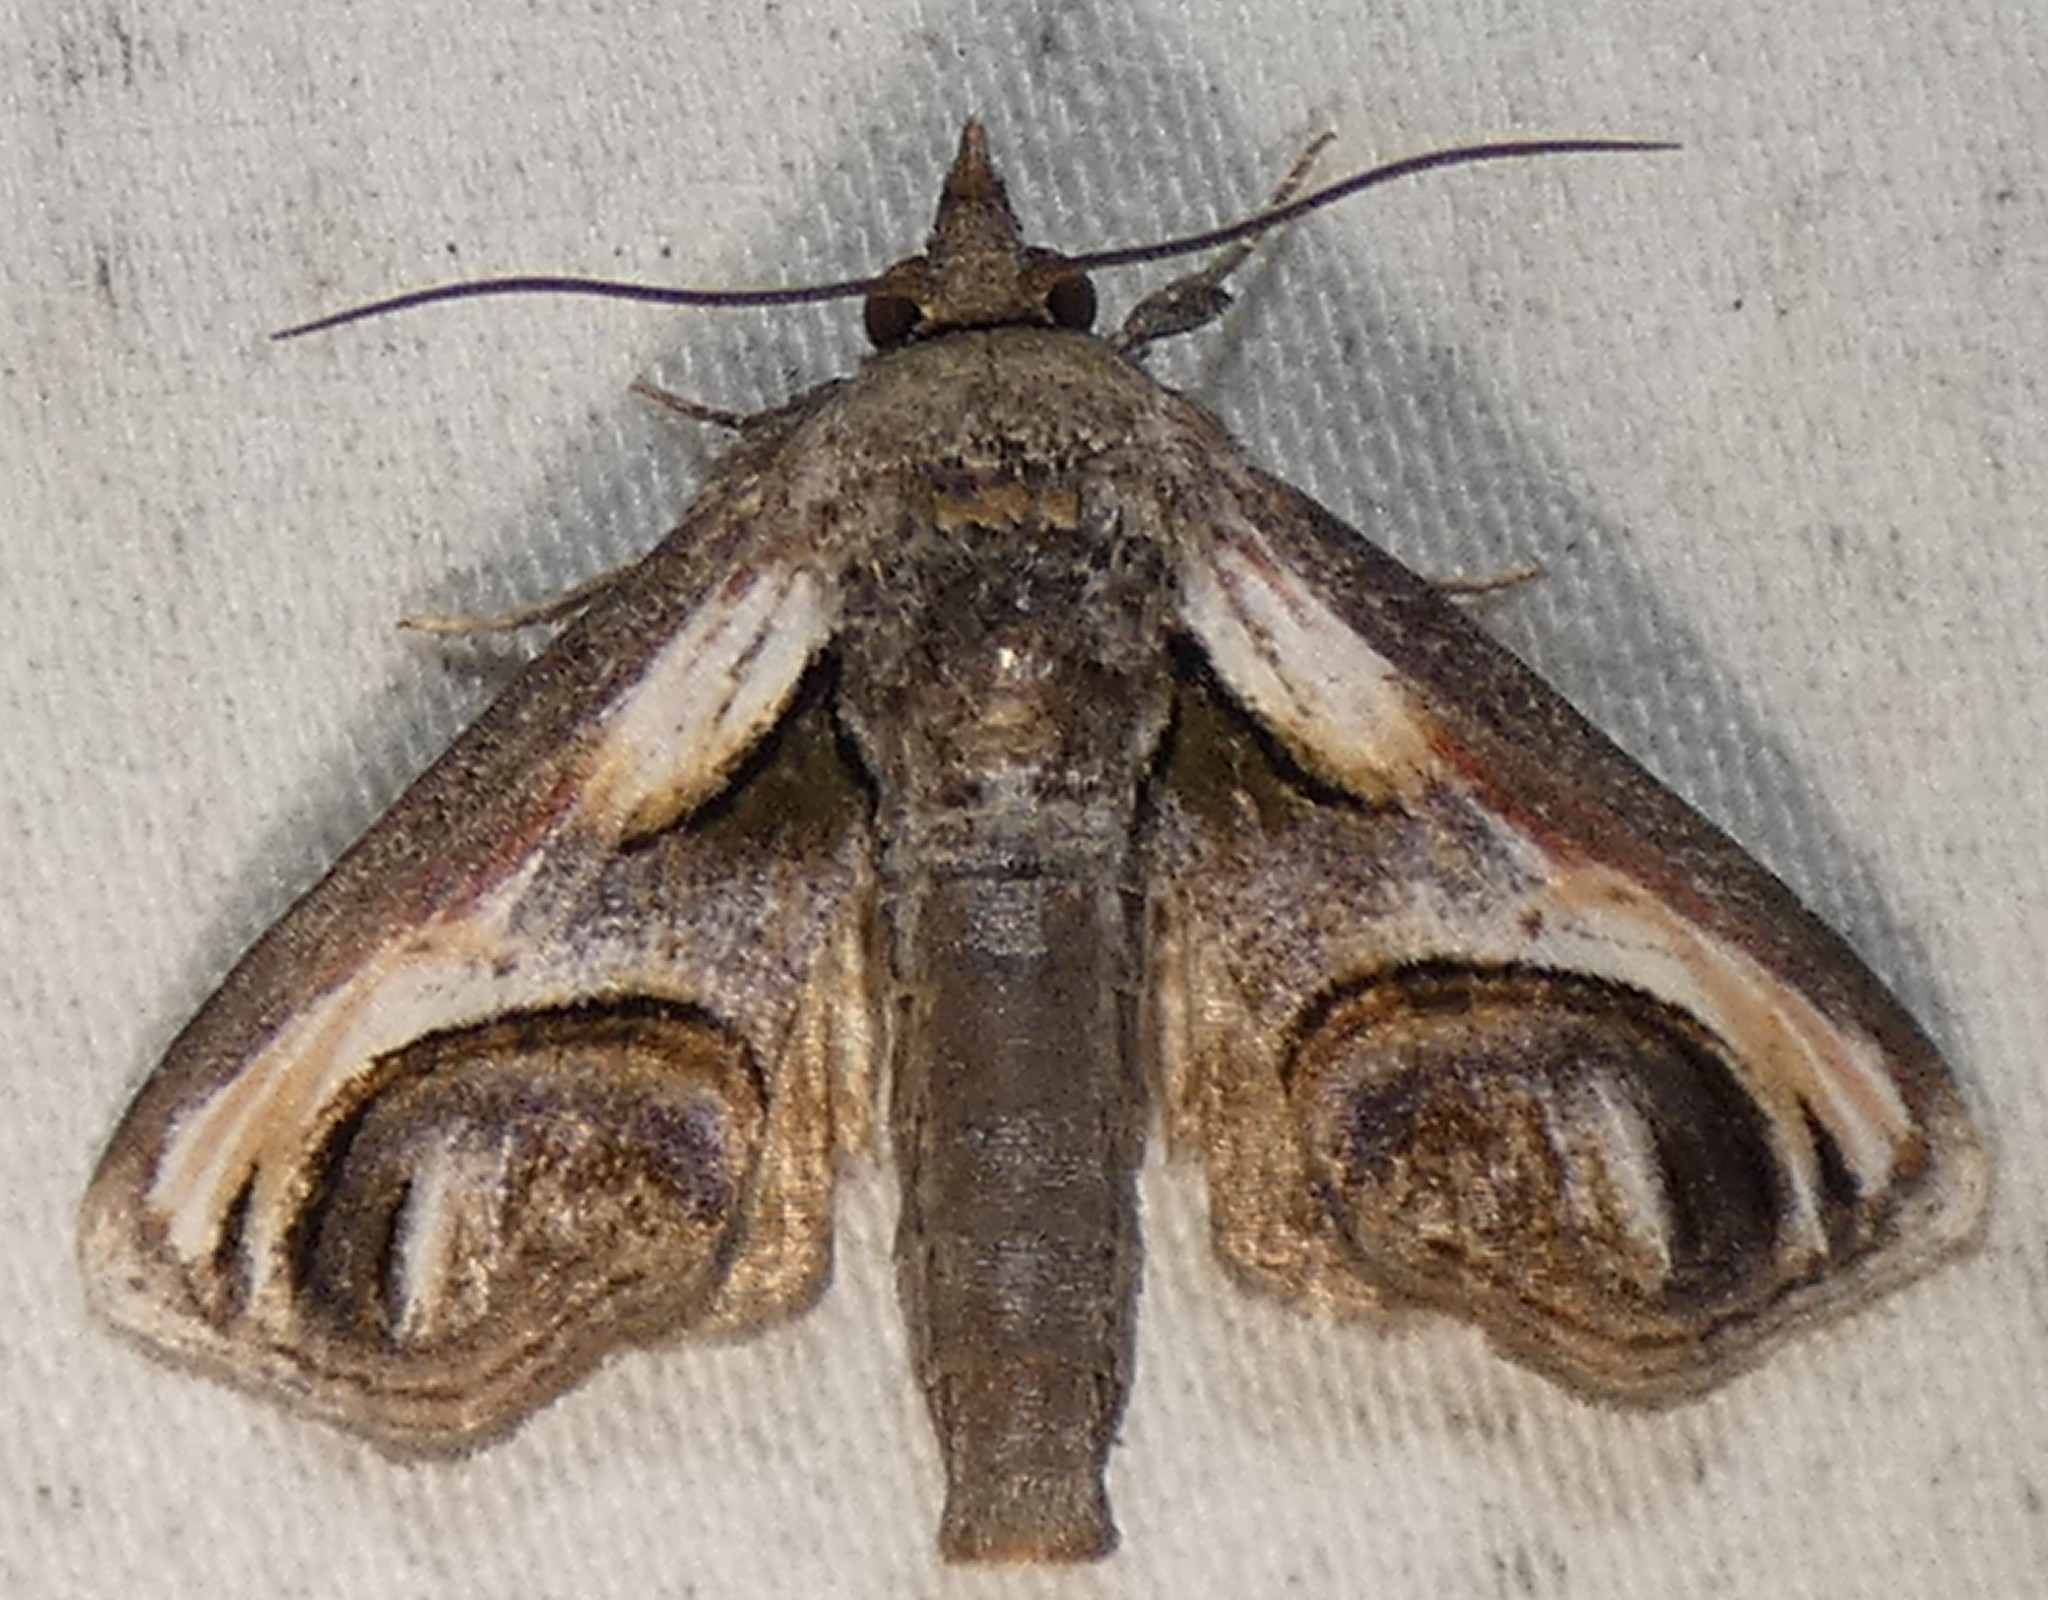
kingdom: Animalia
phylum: Arthropoda
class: Insecta
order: Lepidoptera
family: Euteliidae
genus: Paectes
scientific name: Paectes oculatrix
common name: Eyed paectes moth
